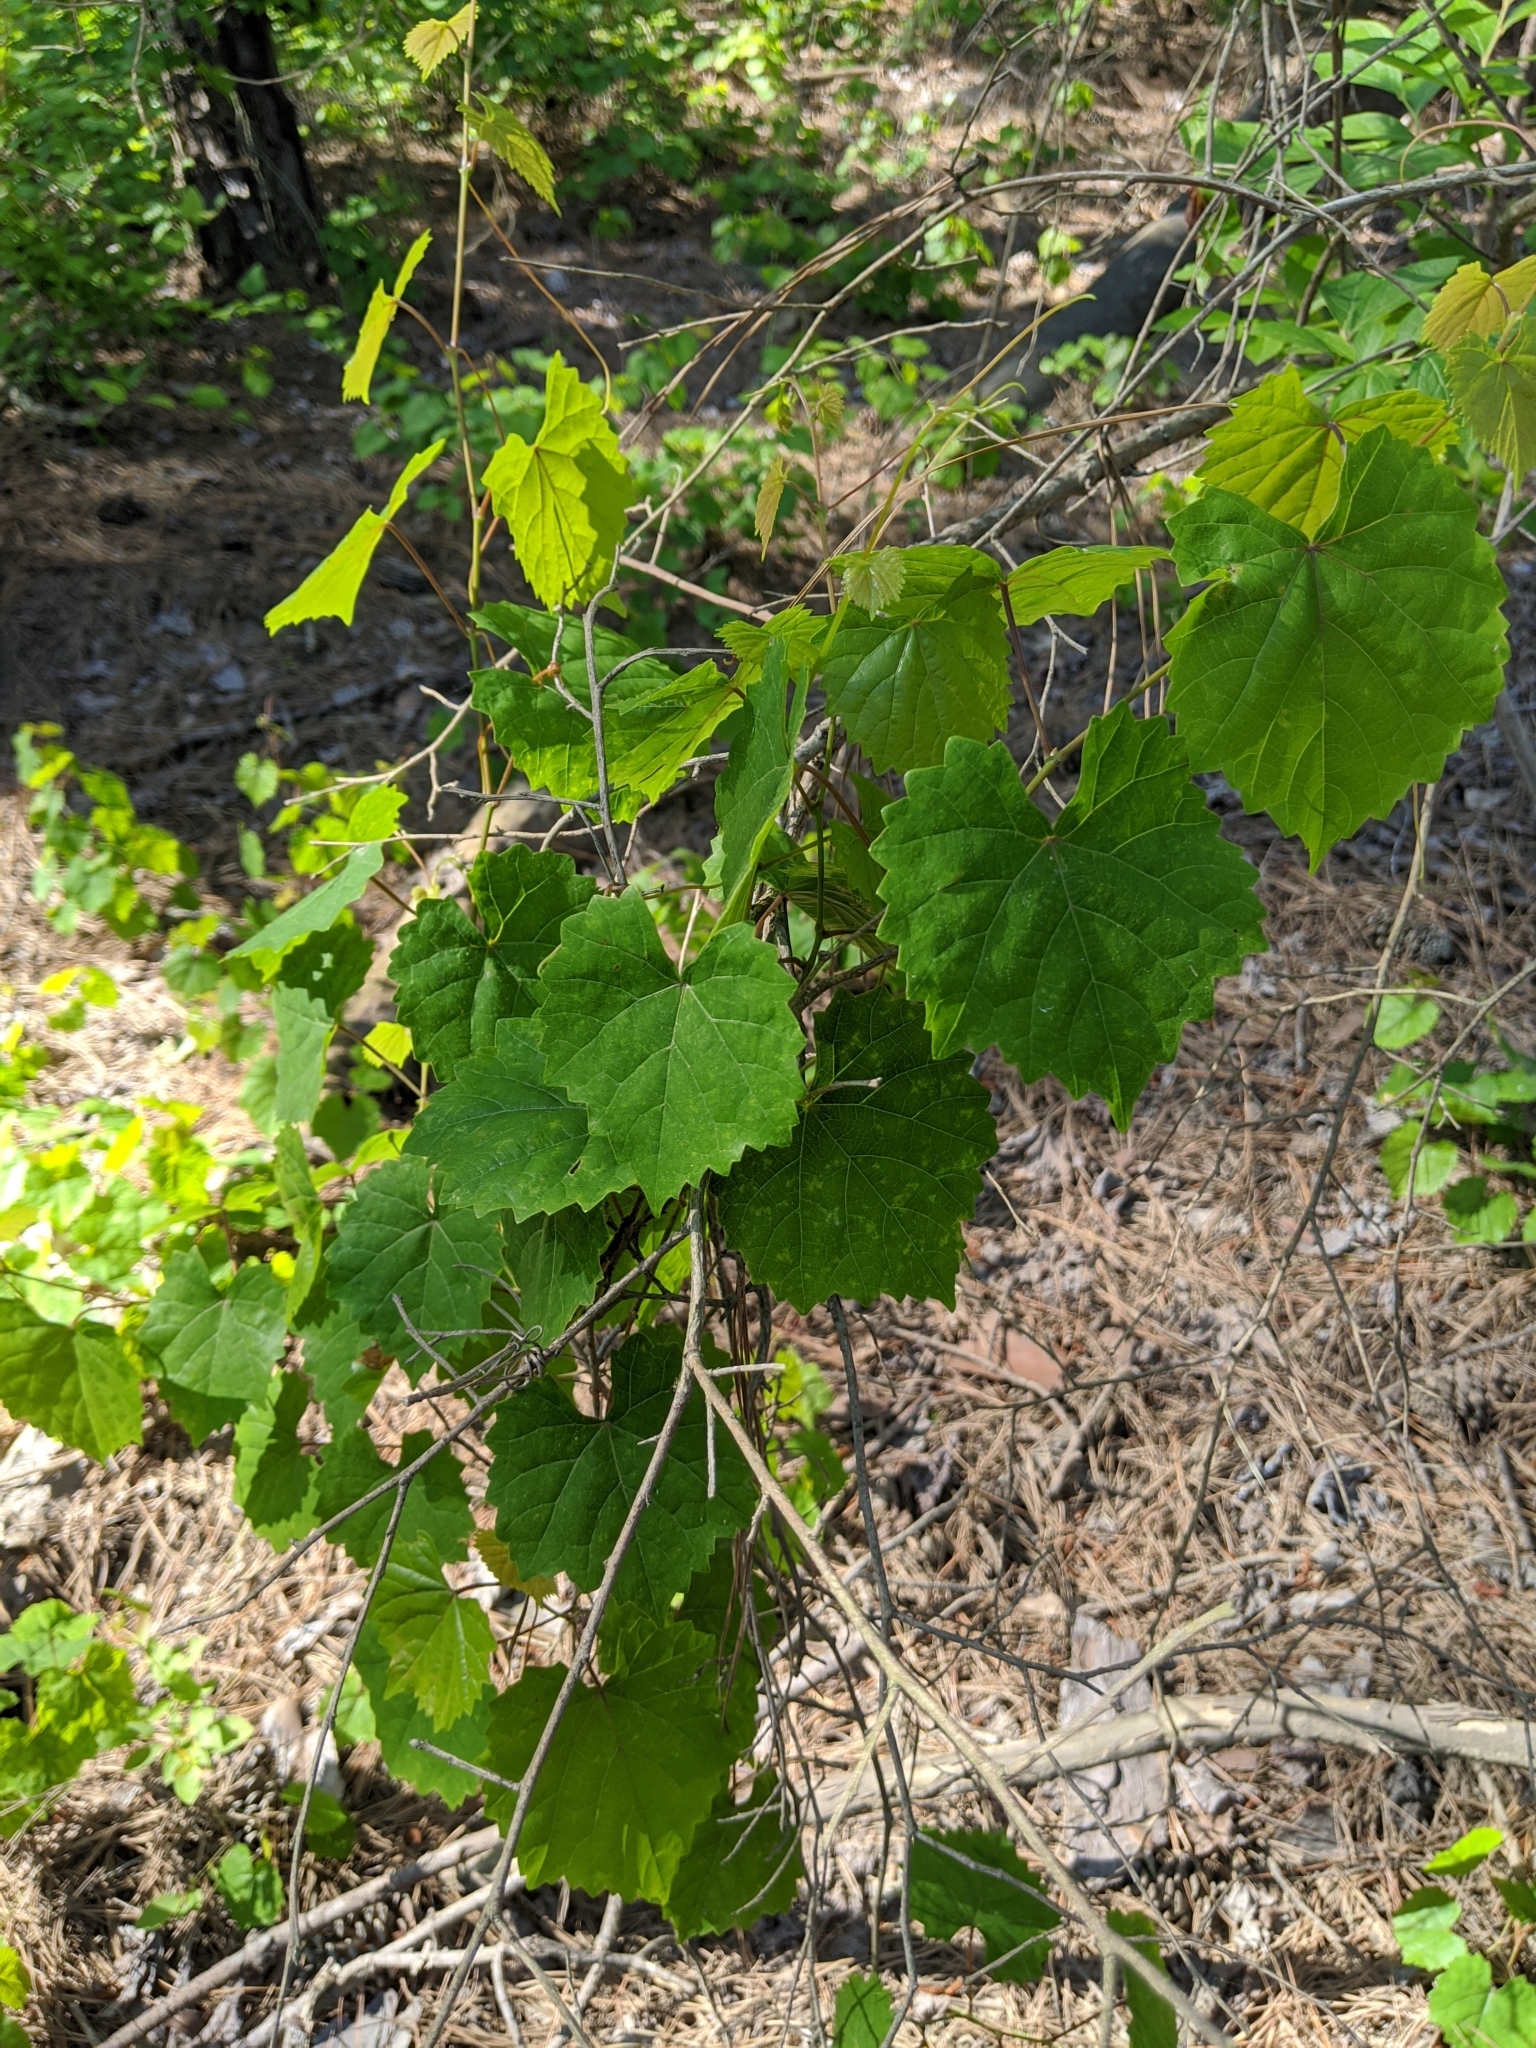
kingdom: Plantae
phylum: Tracheophyta
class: Magnoliopsida
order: Vitales
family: Vitaceae
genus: Vitis
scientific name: Vitis rotundifolia
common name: Muscadine grape
